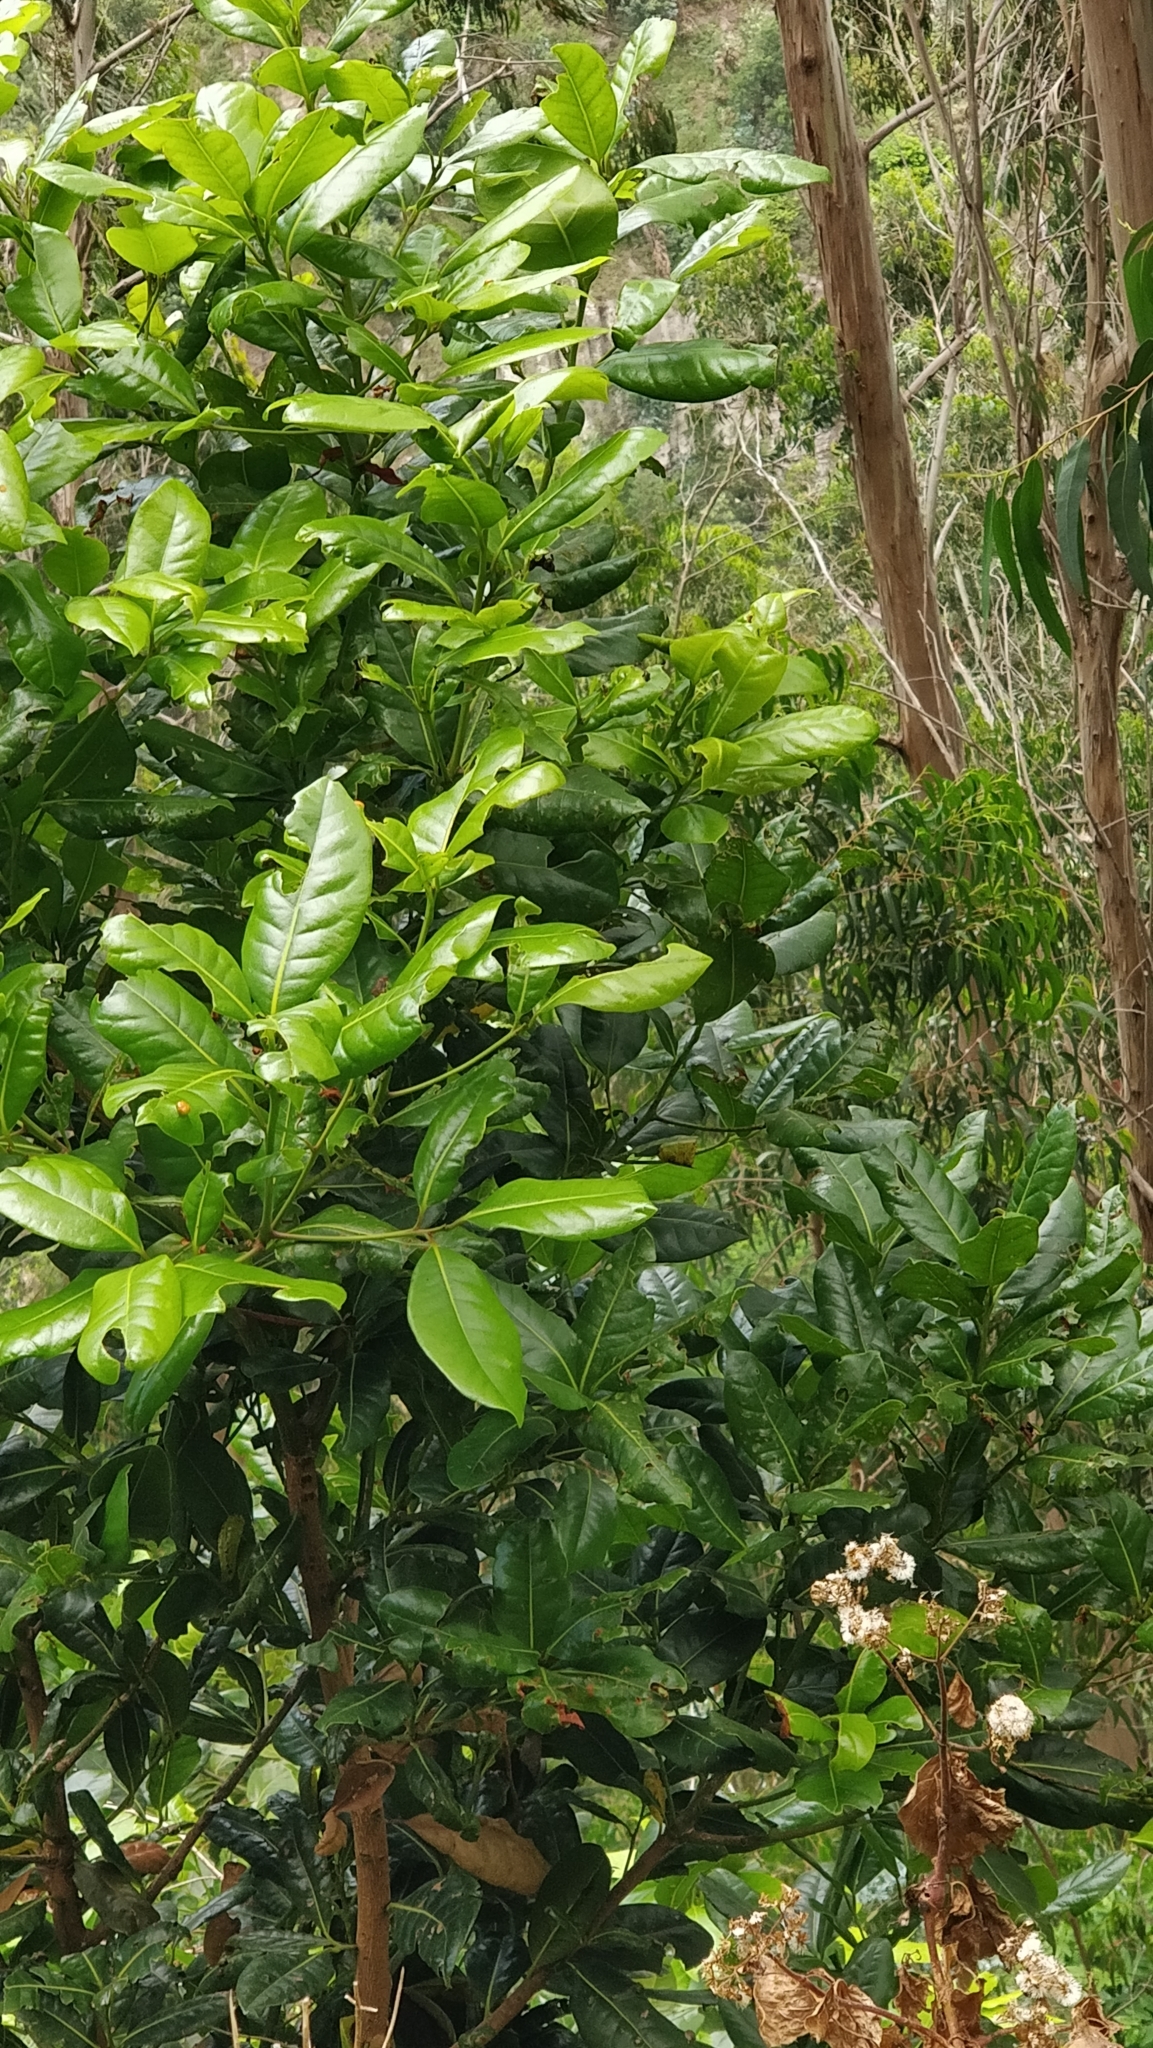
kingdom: Plantae
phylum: Tracheophyta
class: Magnoliopsida
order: Laurales
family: Lauraceae
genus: Apollonias
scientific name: Apollonias barbujana
